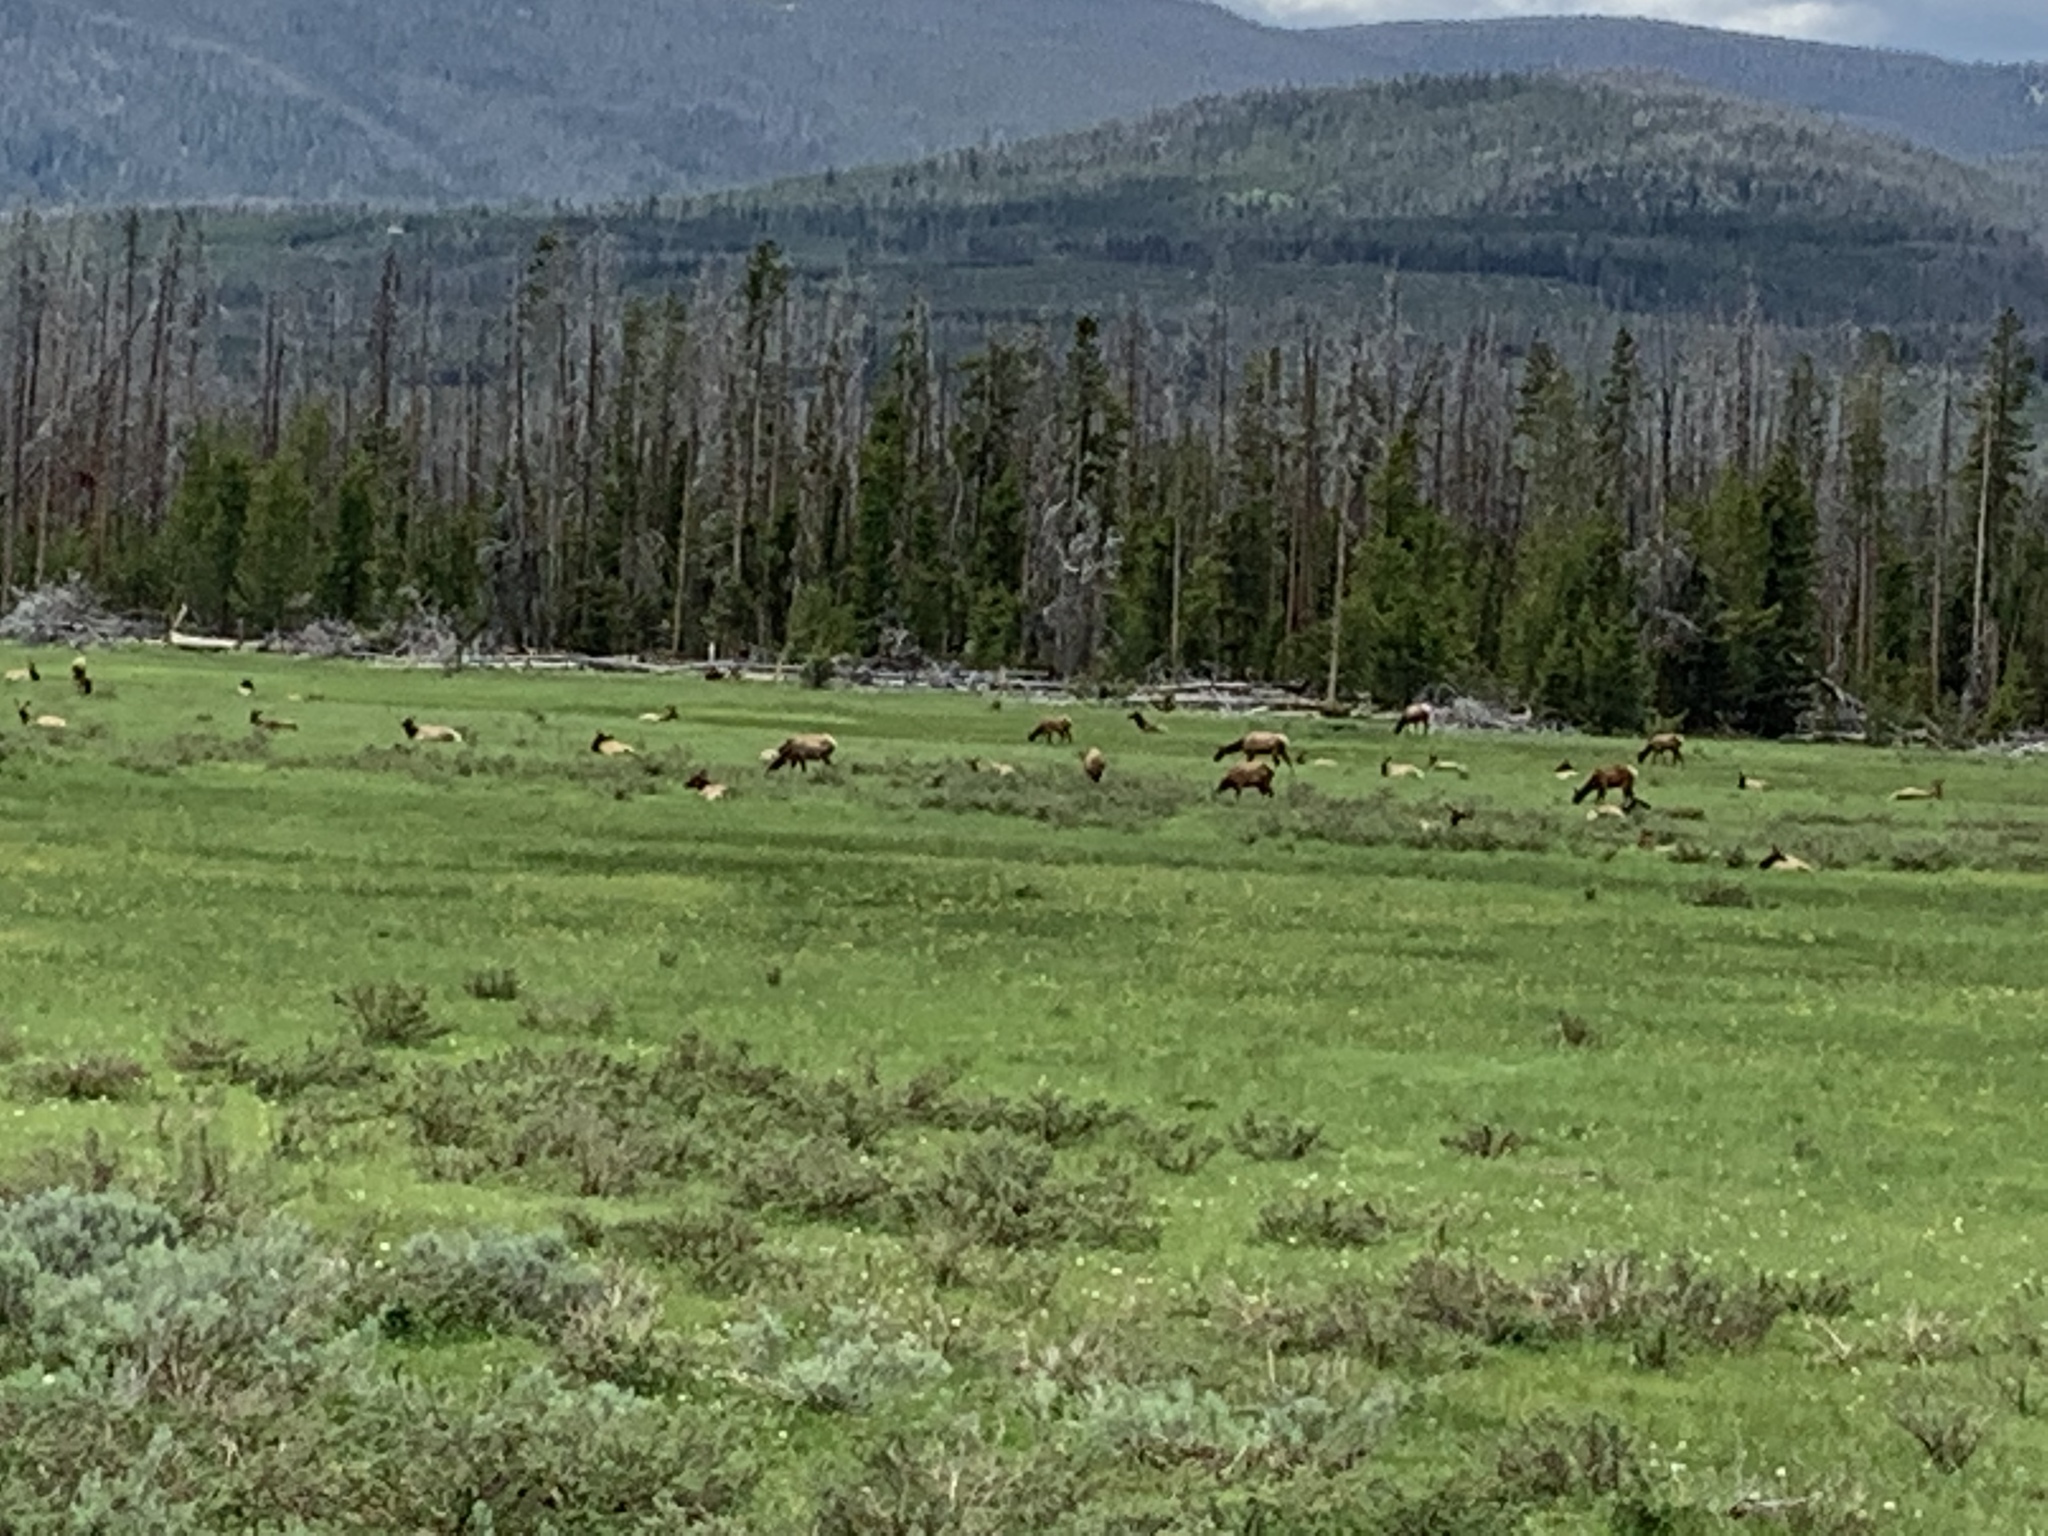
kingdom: Animalia
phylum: Chordata
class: Mammalia
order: Artiodactyla
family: Cervidae
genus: Cervus
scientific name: Cervus elaphus
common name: Red deer
